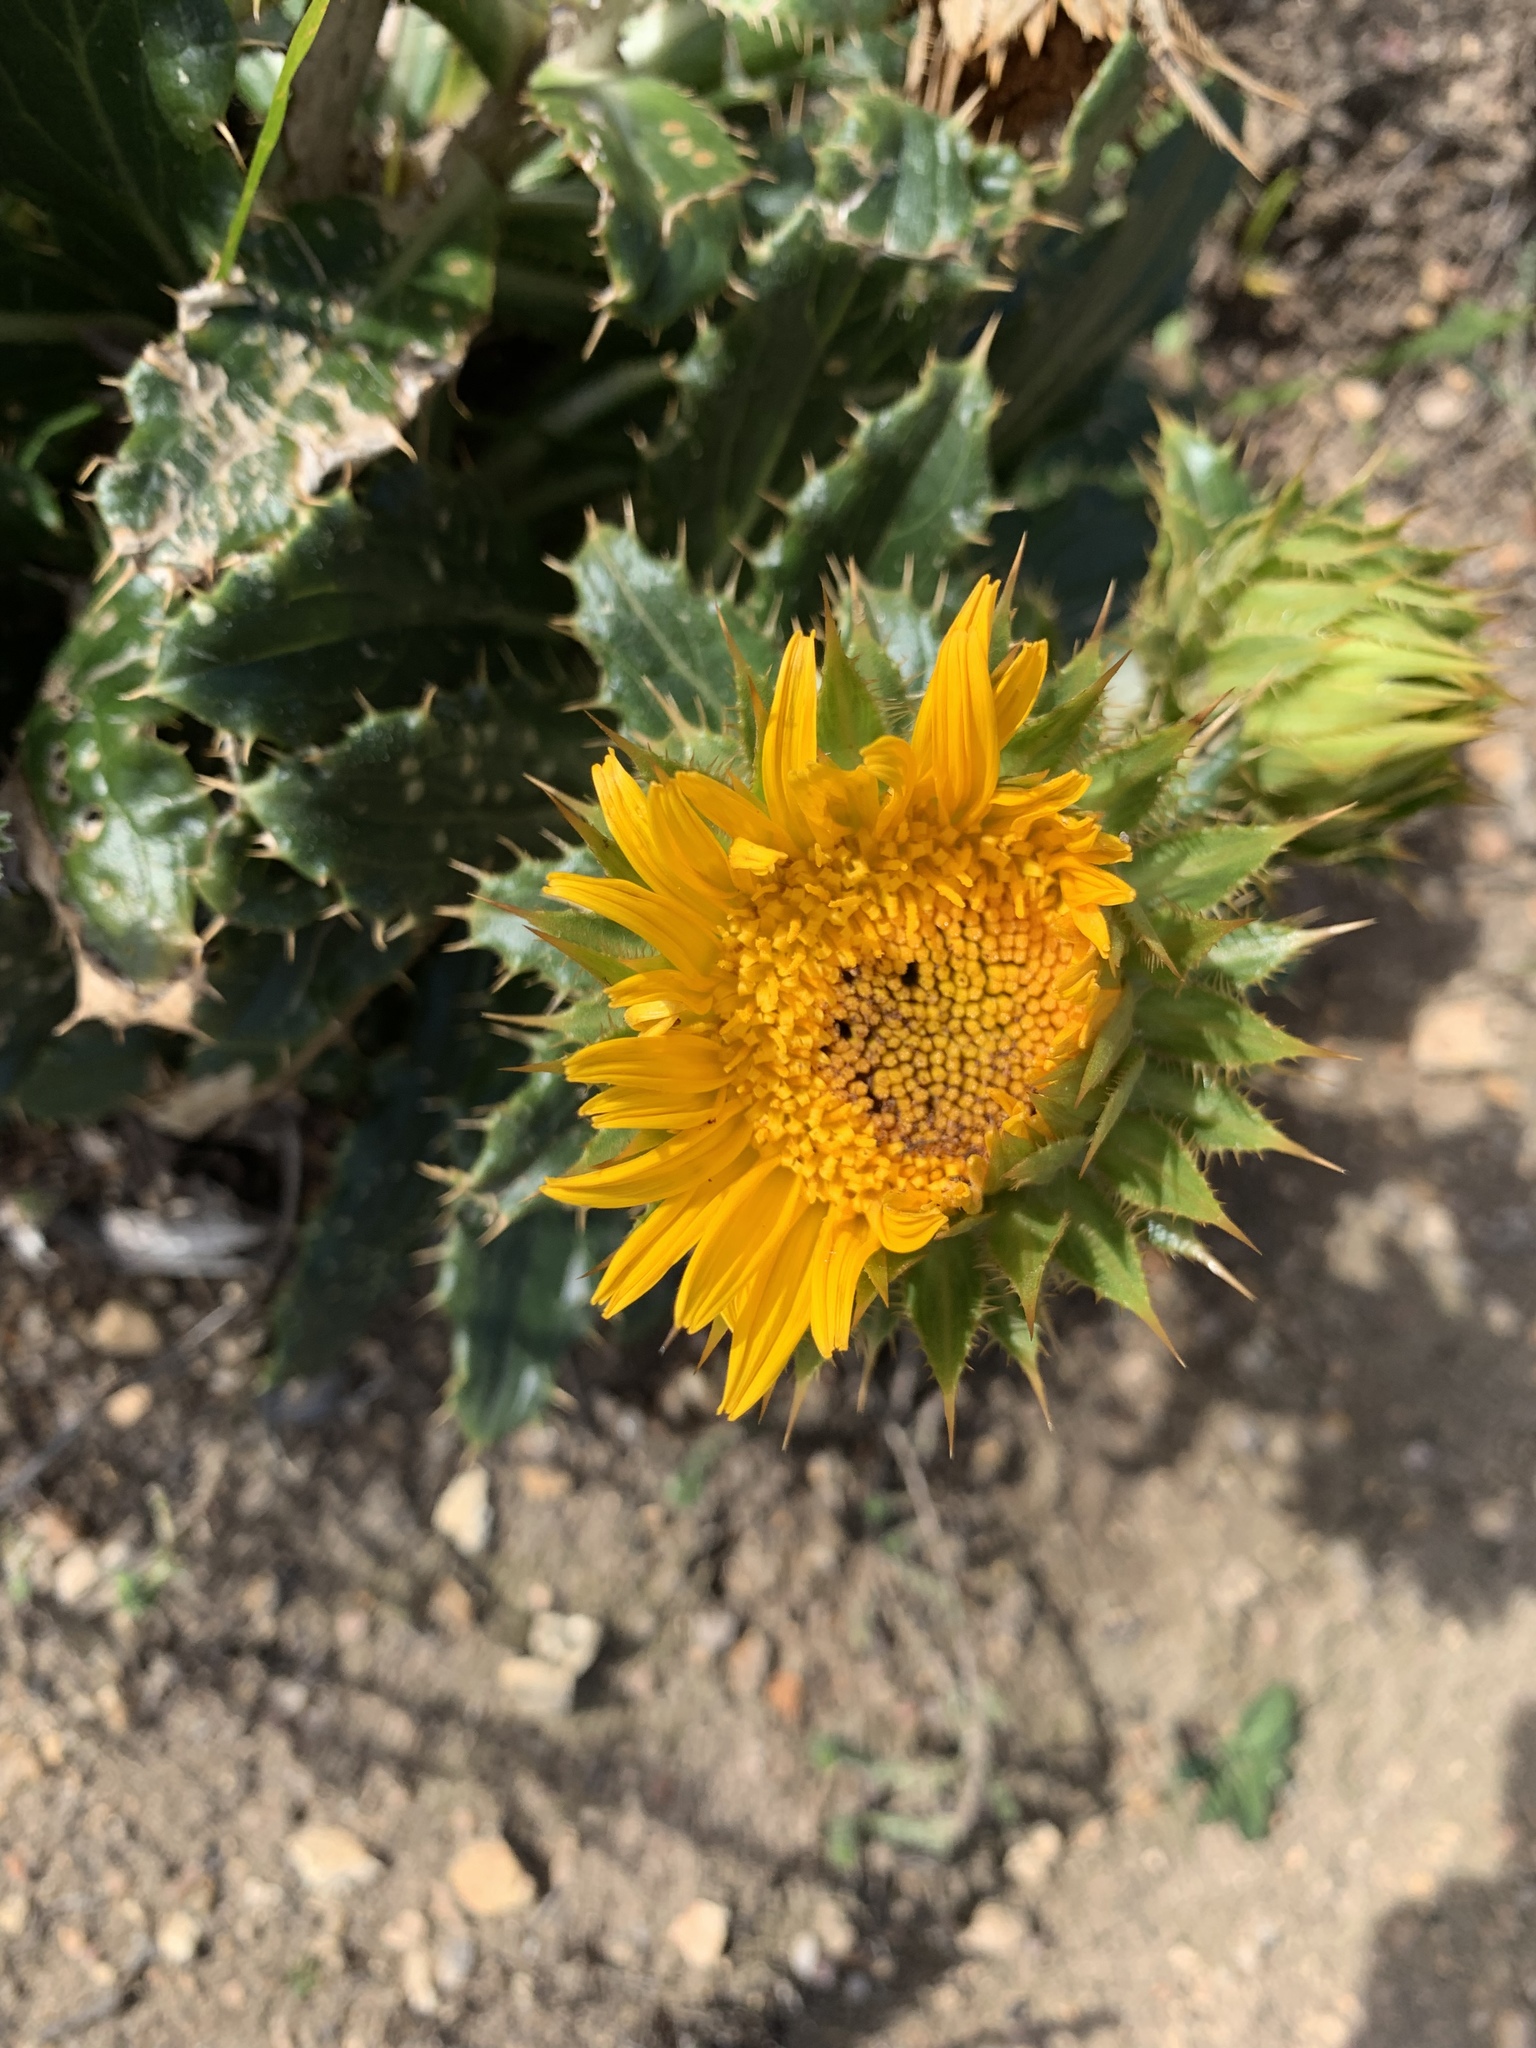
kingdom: Plantae
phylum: Tracheophyta
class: Magnoliopsida
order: Asterales
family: Asteraceae
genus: Berkheya
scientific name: Berkheya armata
